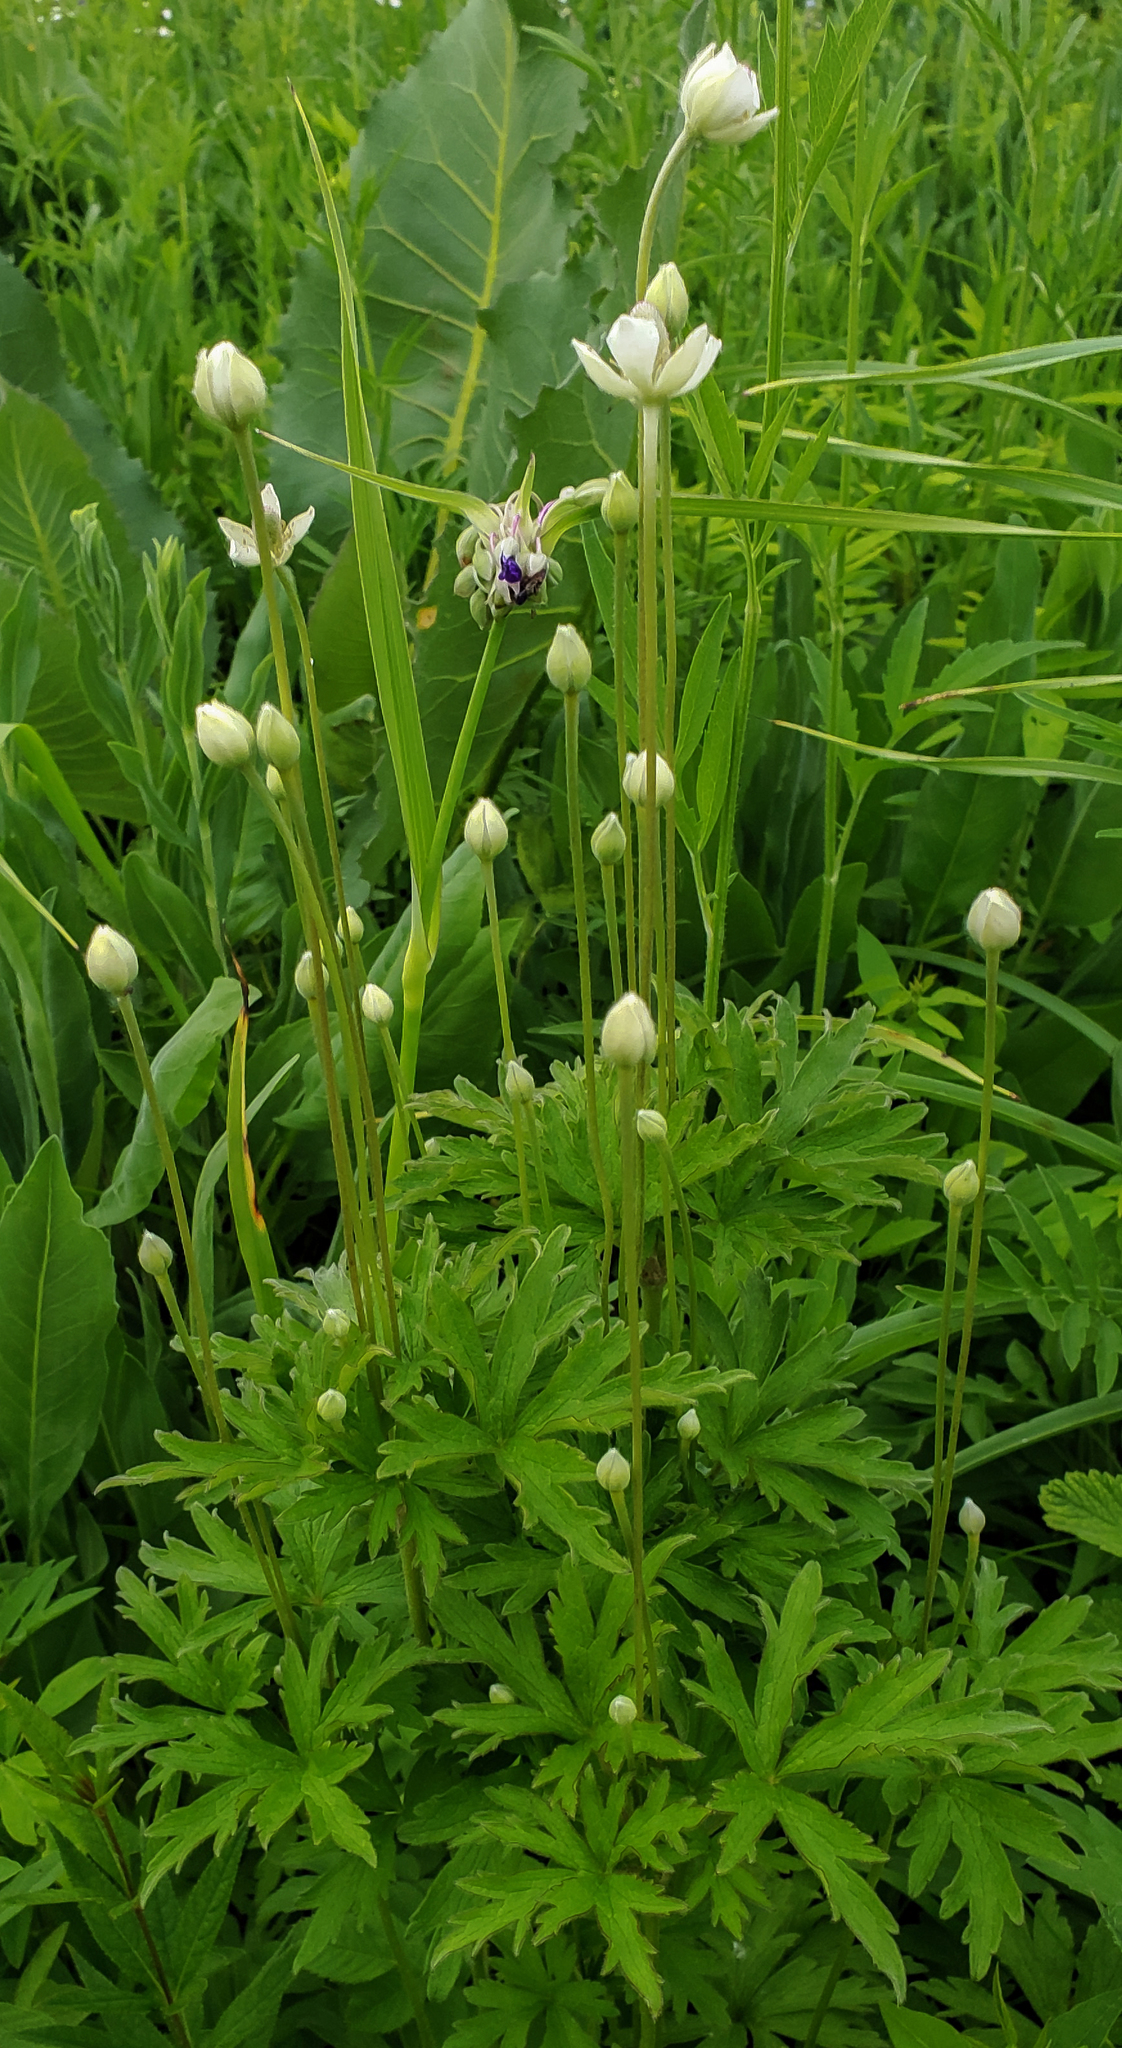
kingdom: Plantae
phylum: Tracheophyta
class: Magnoliopsida
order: Ranunculales
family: Ranunculaceae
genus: Anemone
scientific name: Anemone cylindrica
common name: Candle anemone
